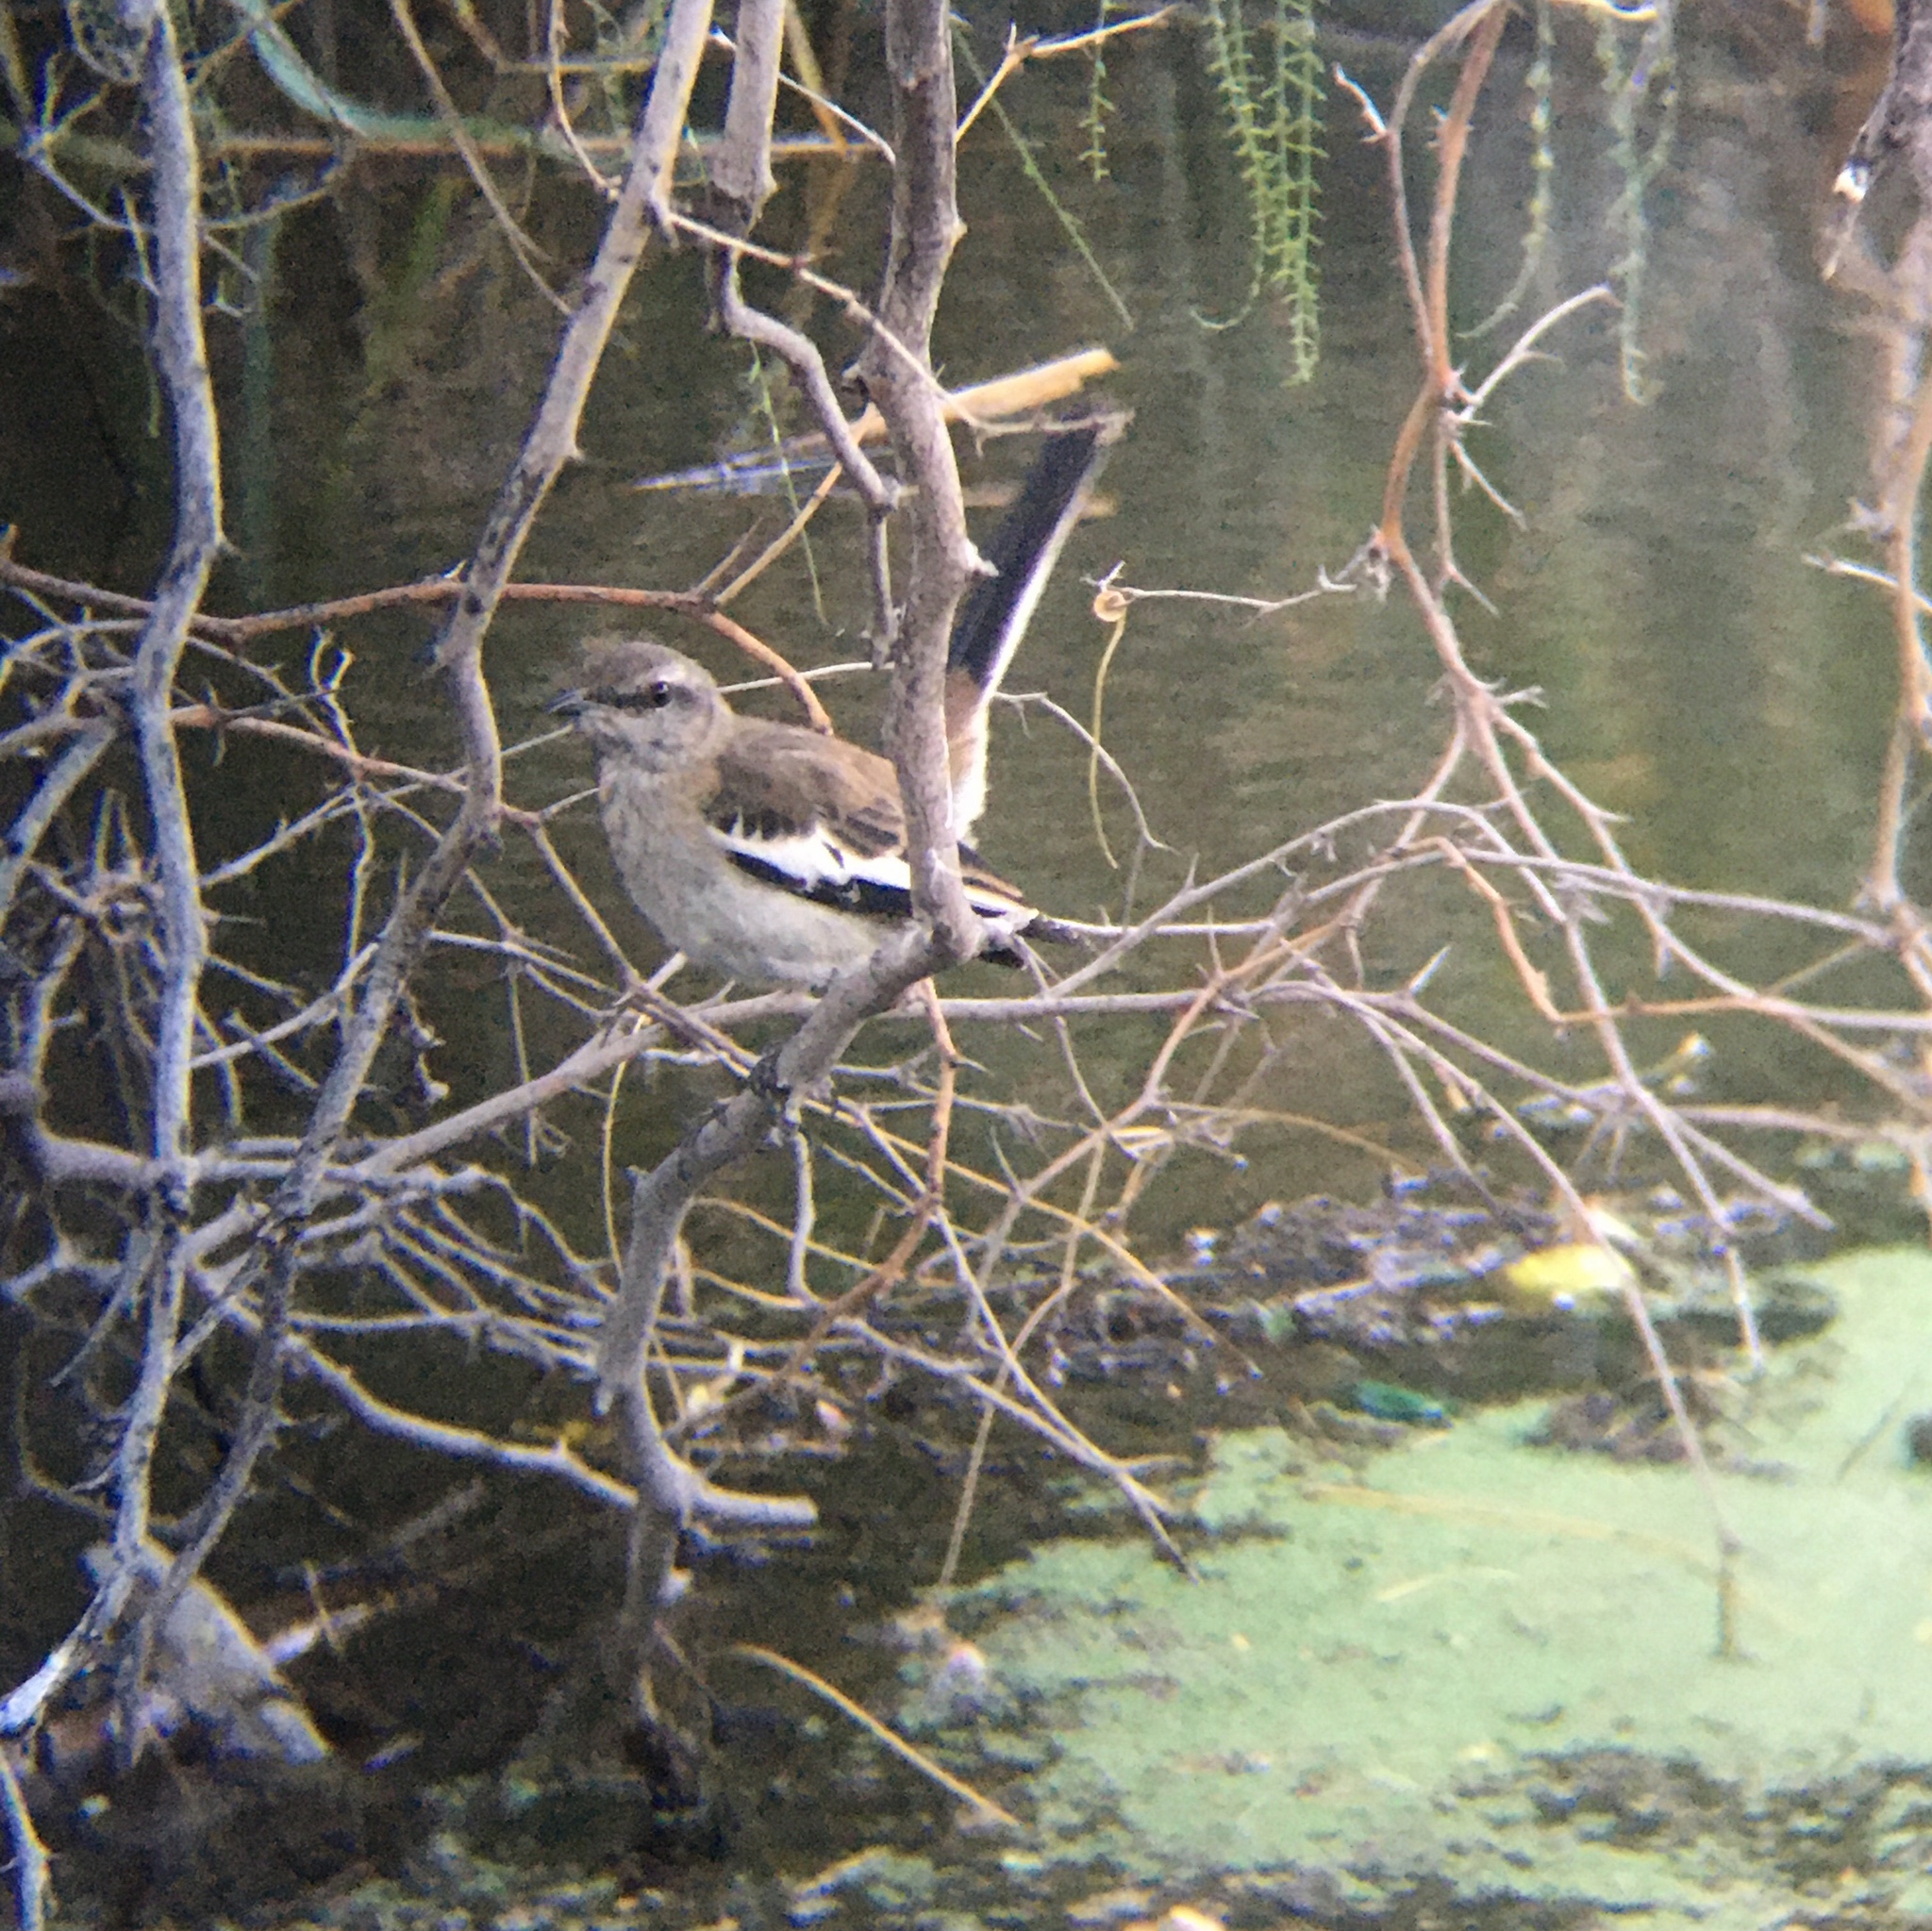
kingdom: Animalia
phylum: Chordata
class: Aves
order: Passeriformes
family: Mimidae
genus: Mimus
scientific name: Mimus triurus
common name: White-banded mockingbird
